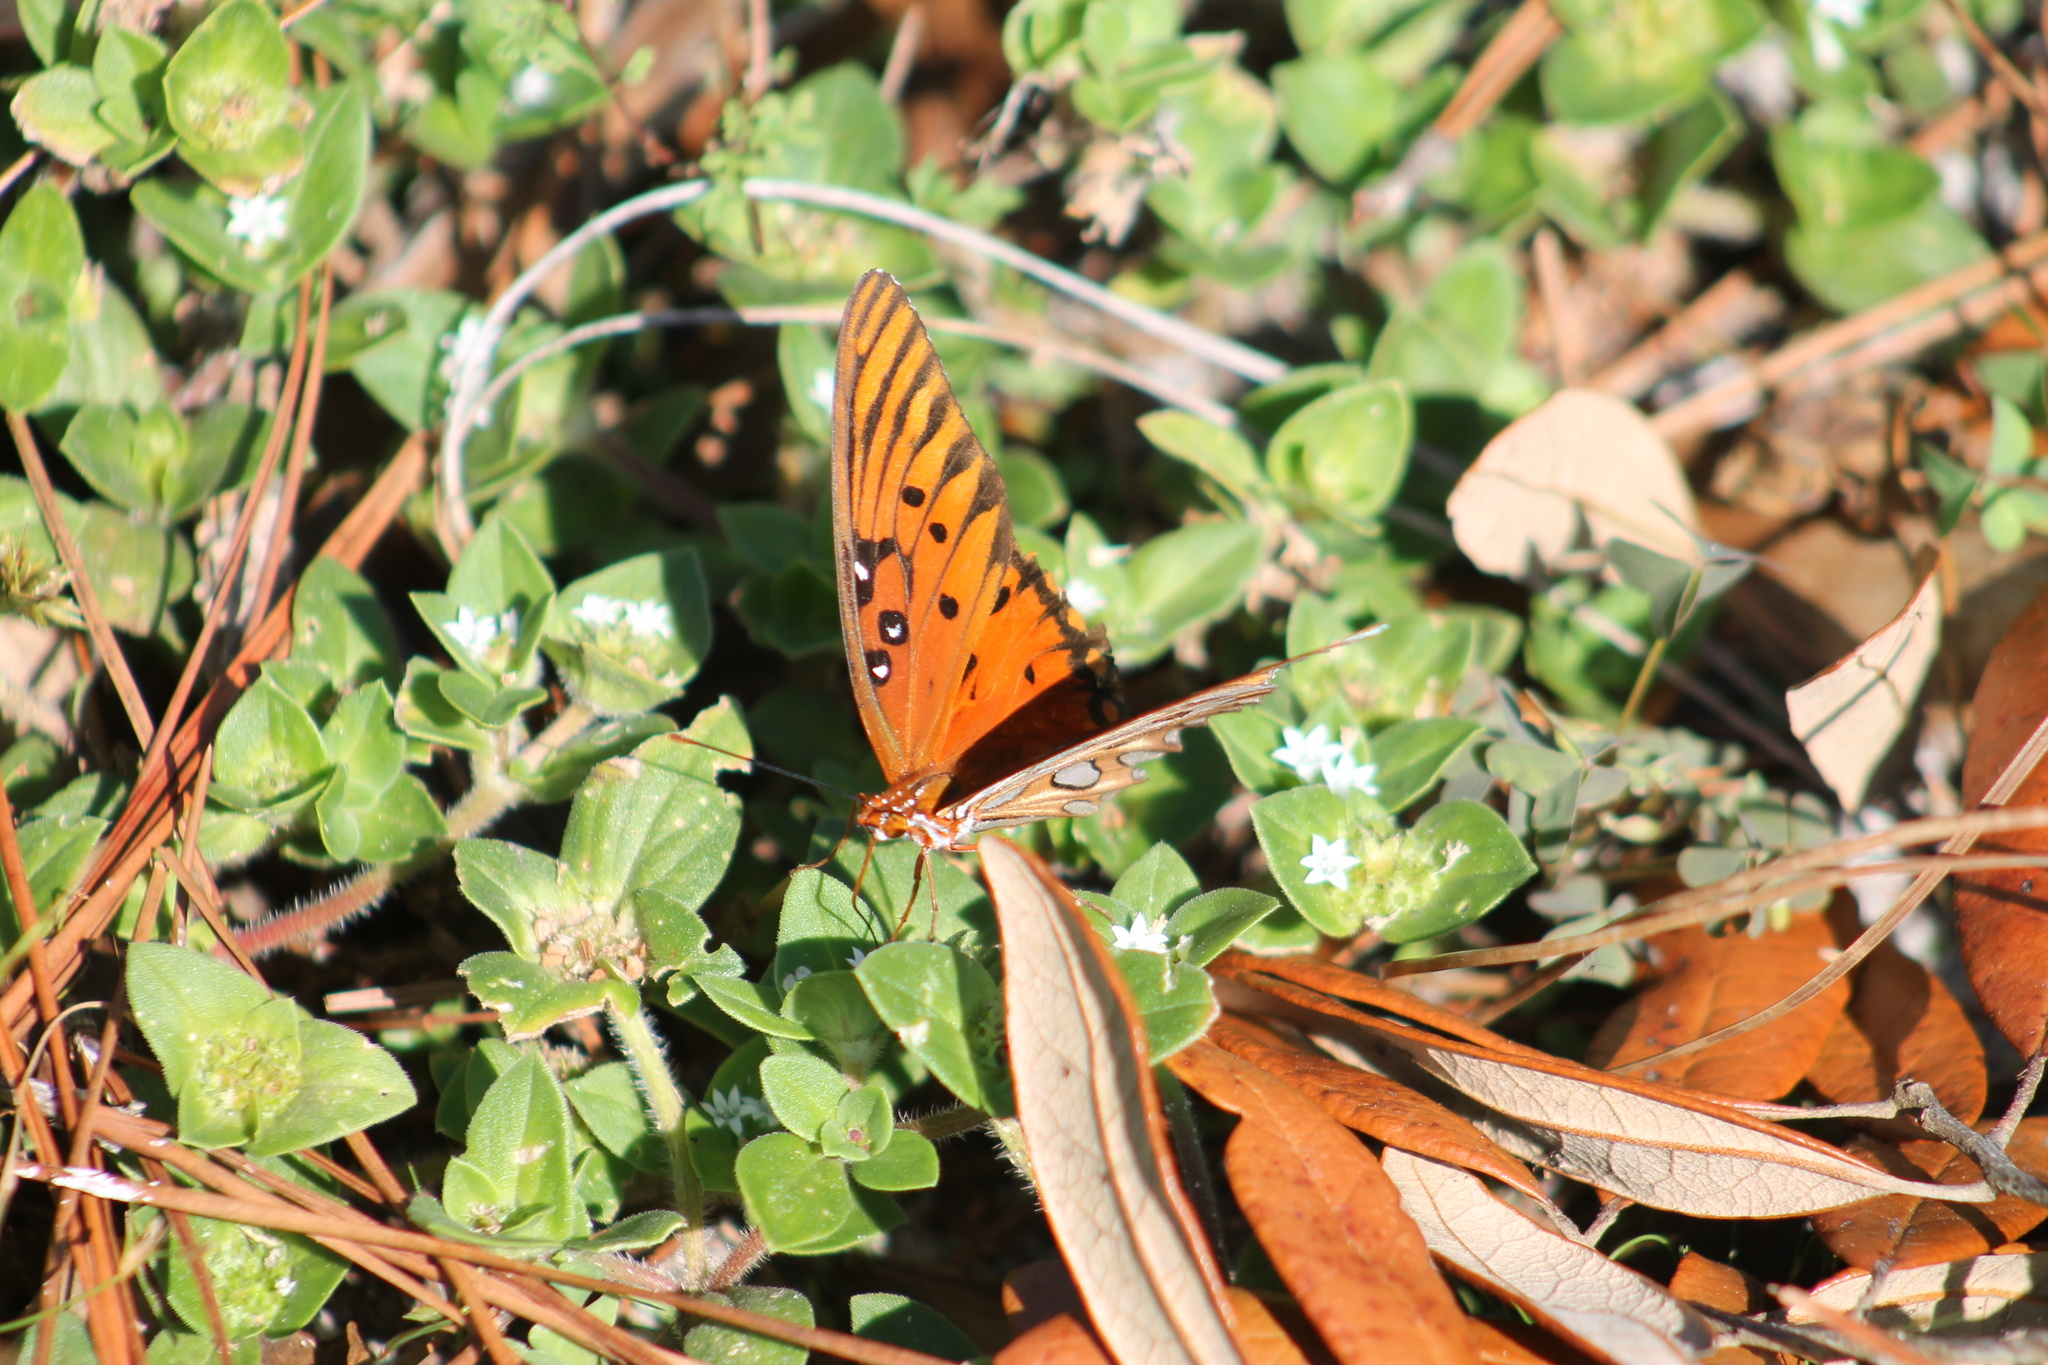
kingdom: Animalia
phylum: Arthropoda
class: Insecta
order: Lepidoptera
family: Nymphalidae
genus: Dione
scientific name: Dione vanillae
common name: Gulf fritillary
